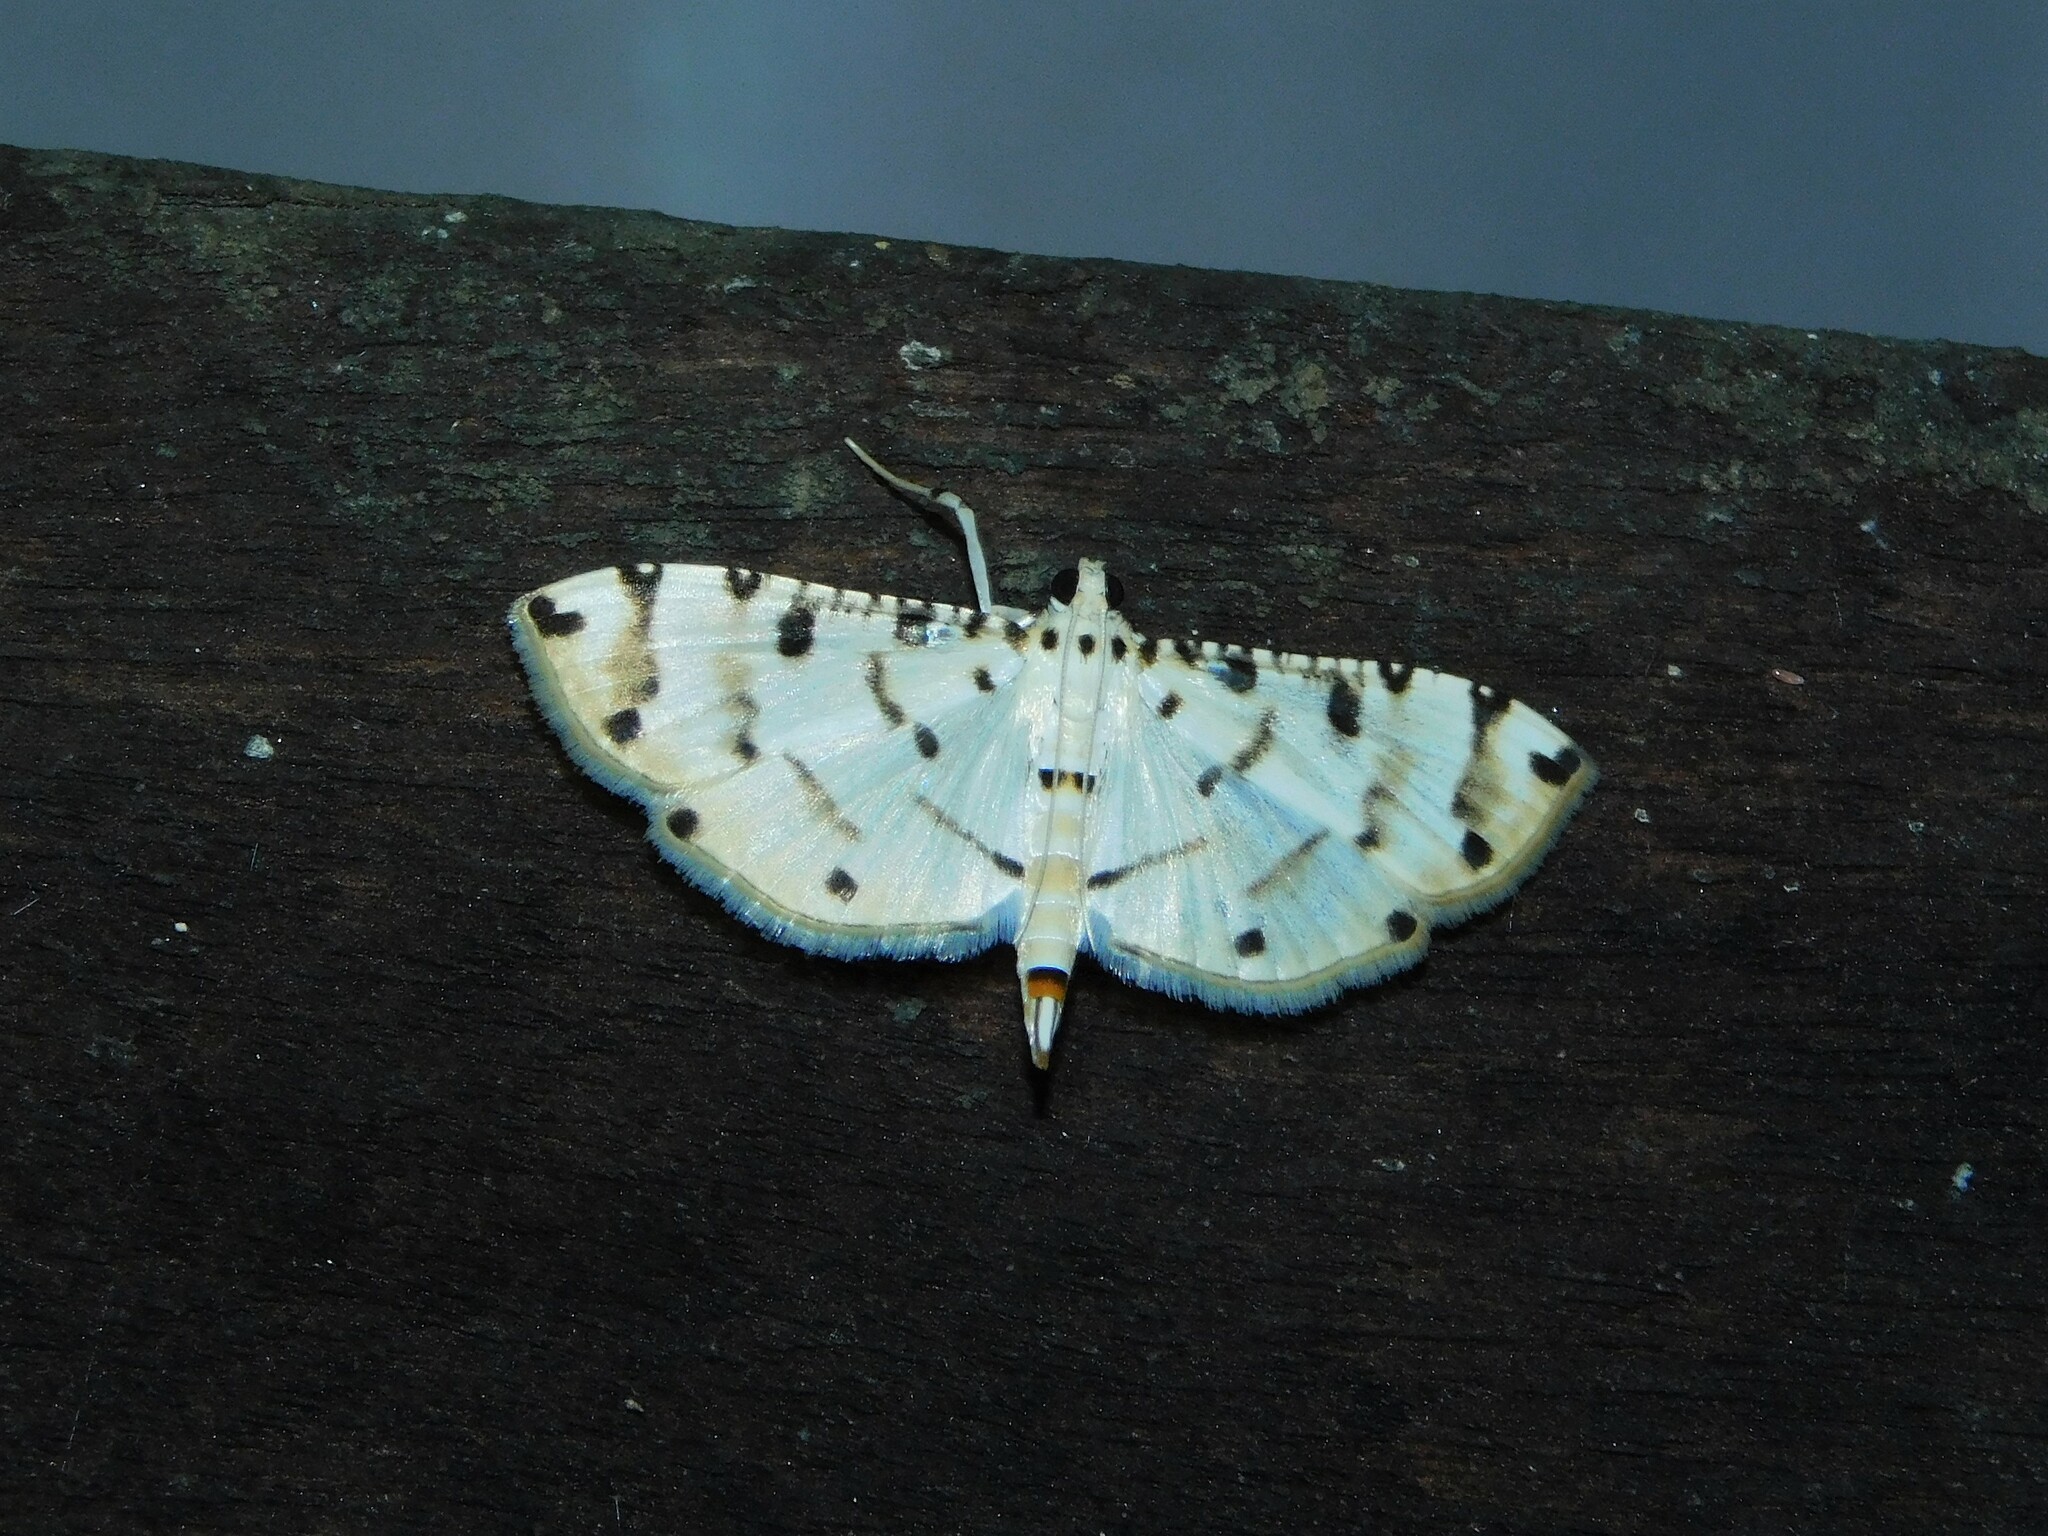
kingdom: Animalia
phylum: Arthropoda
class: Insecta
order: Lepidoptera
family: Crambidae
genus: Pycnarmon
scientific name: Pycnarmon cribrata
